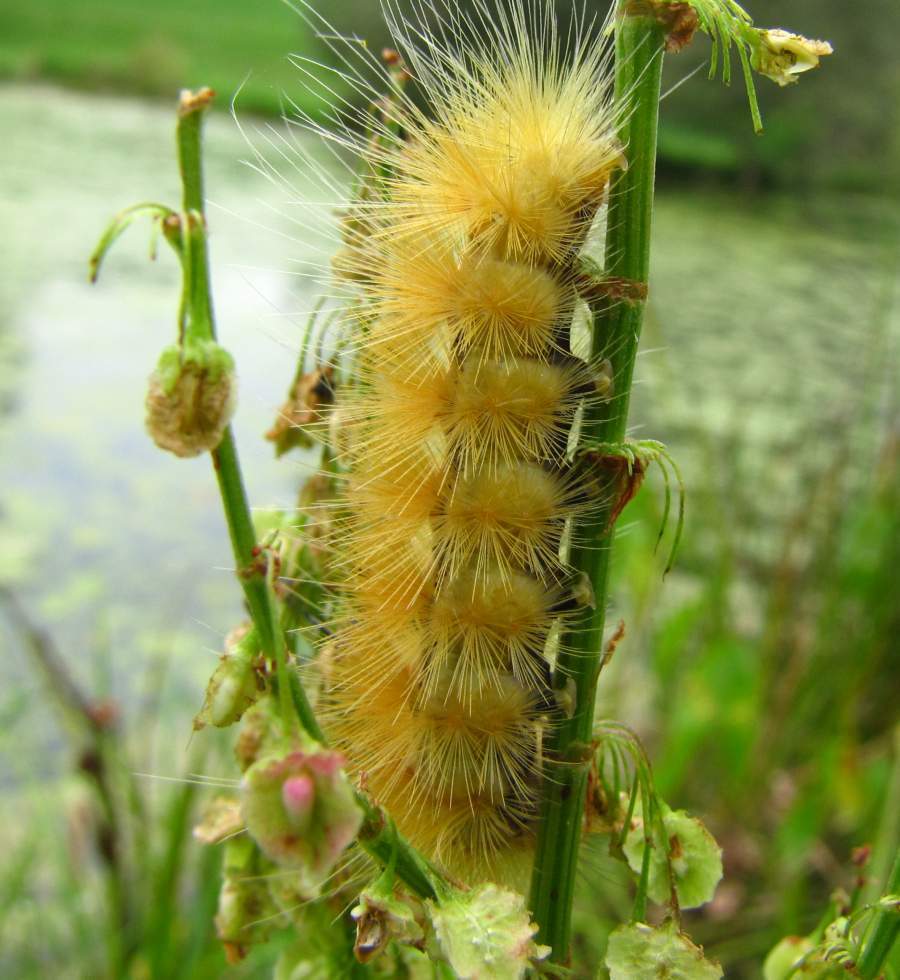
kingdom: Animalia
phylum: Arthropoda
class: Insecta
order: Lepidoptera
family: Erebidae
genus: Spilosoma
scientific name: Spilosoma virginica
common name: Virginia tiger moth
